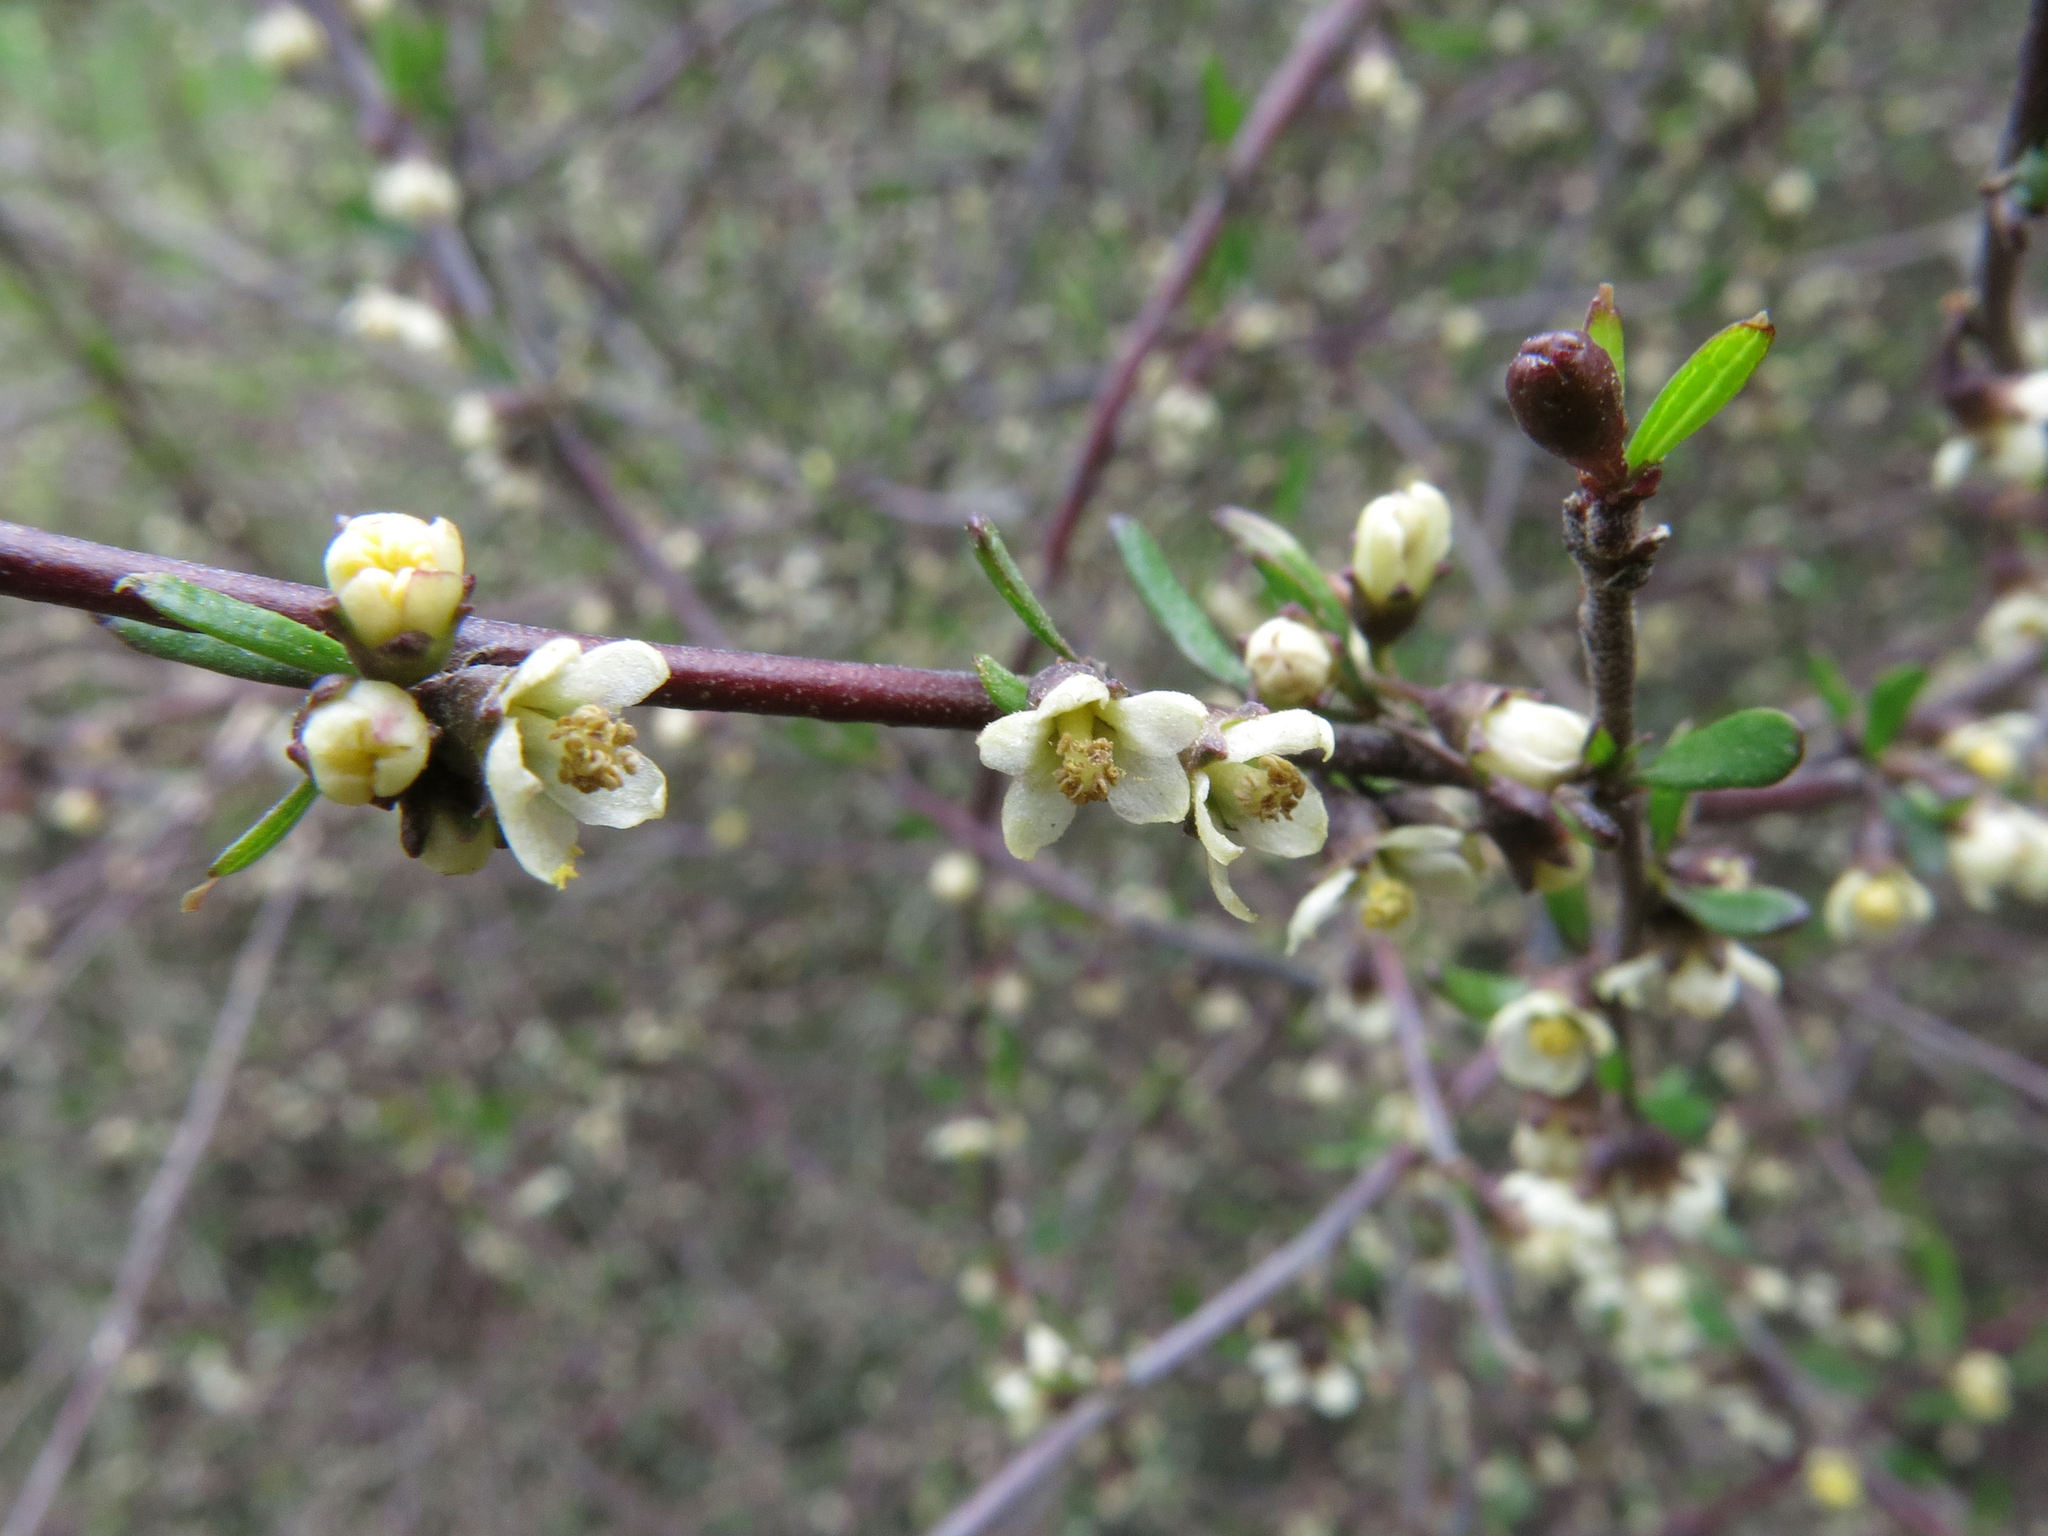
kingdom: Plantae
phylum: Tracheophyta
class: Magnoliopsida
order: Malvales
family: Malvaceae
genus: Plagianthus
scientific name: Plagianthus divaricatus
